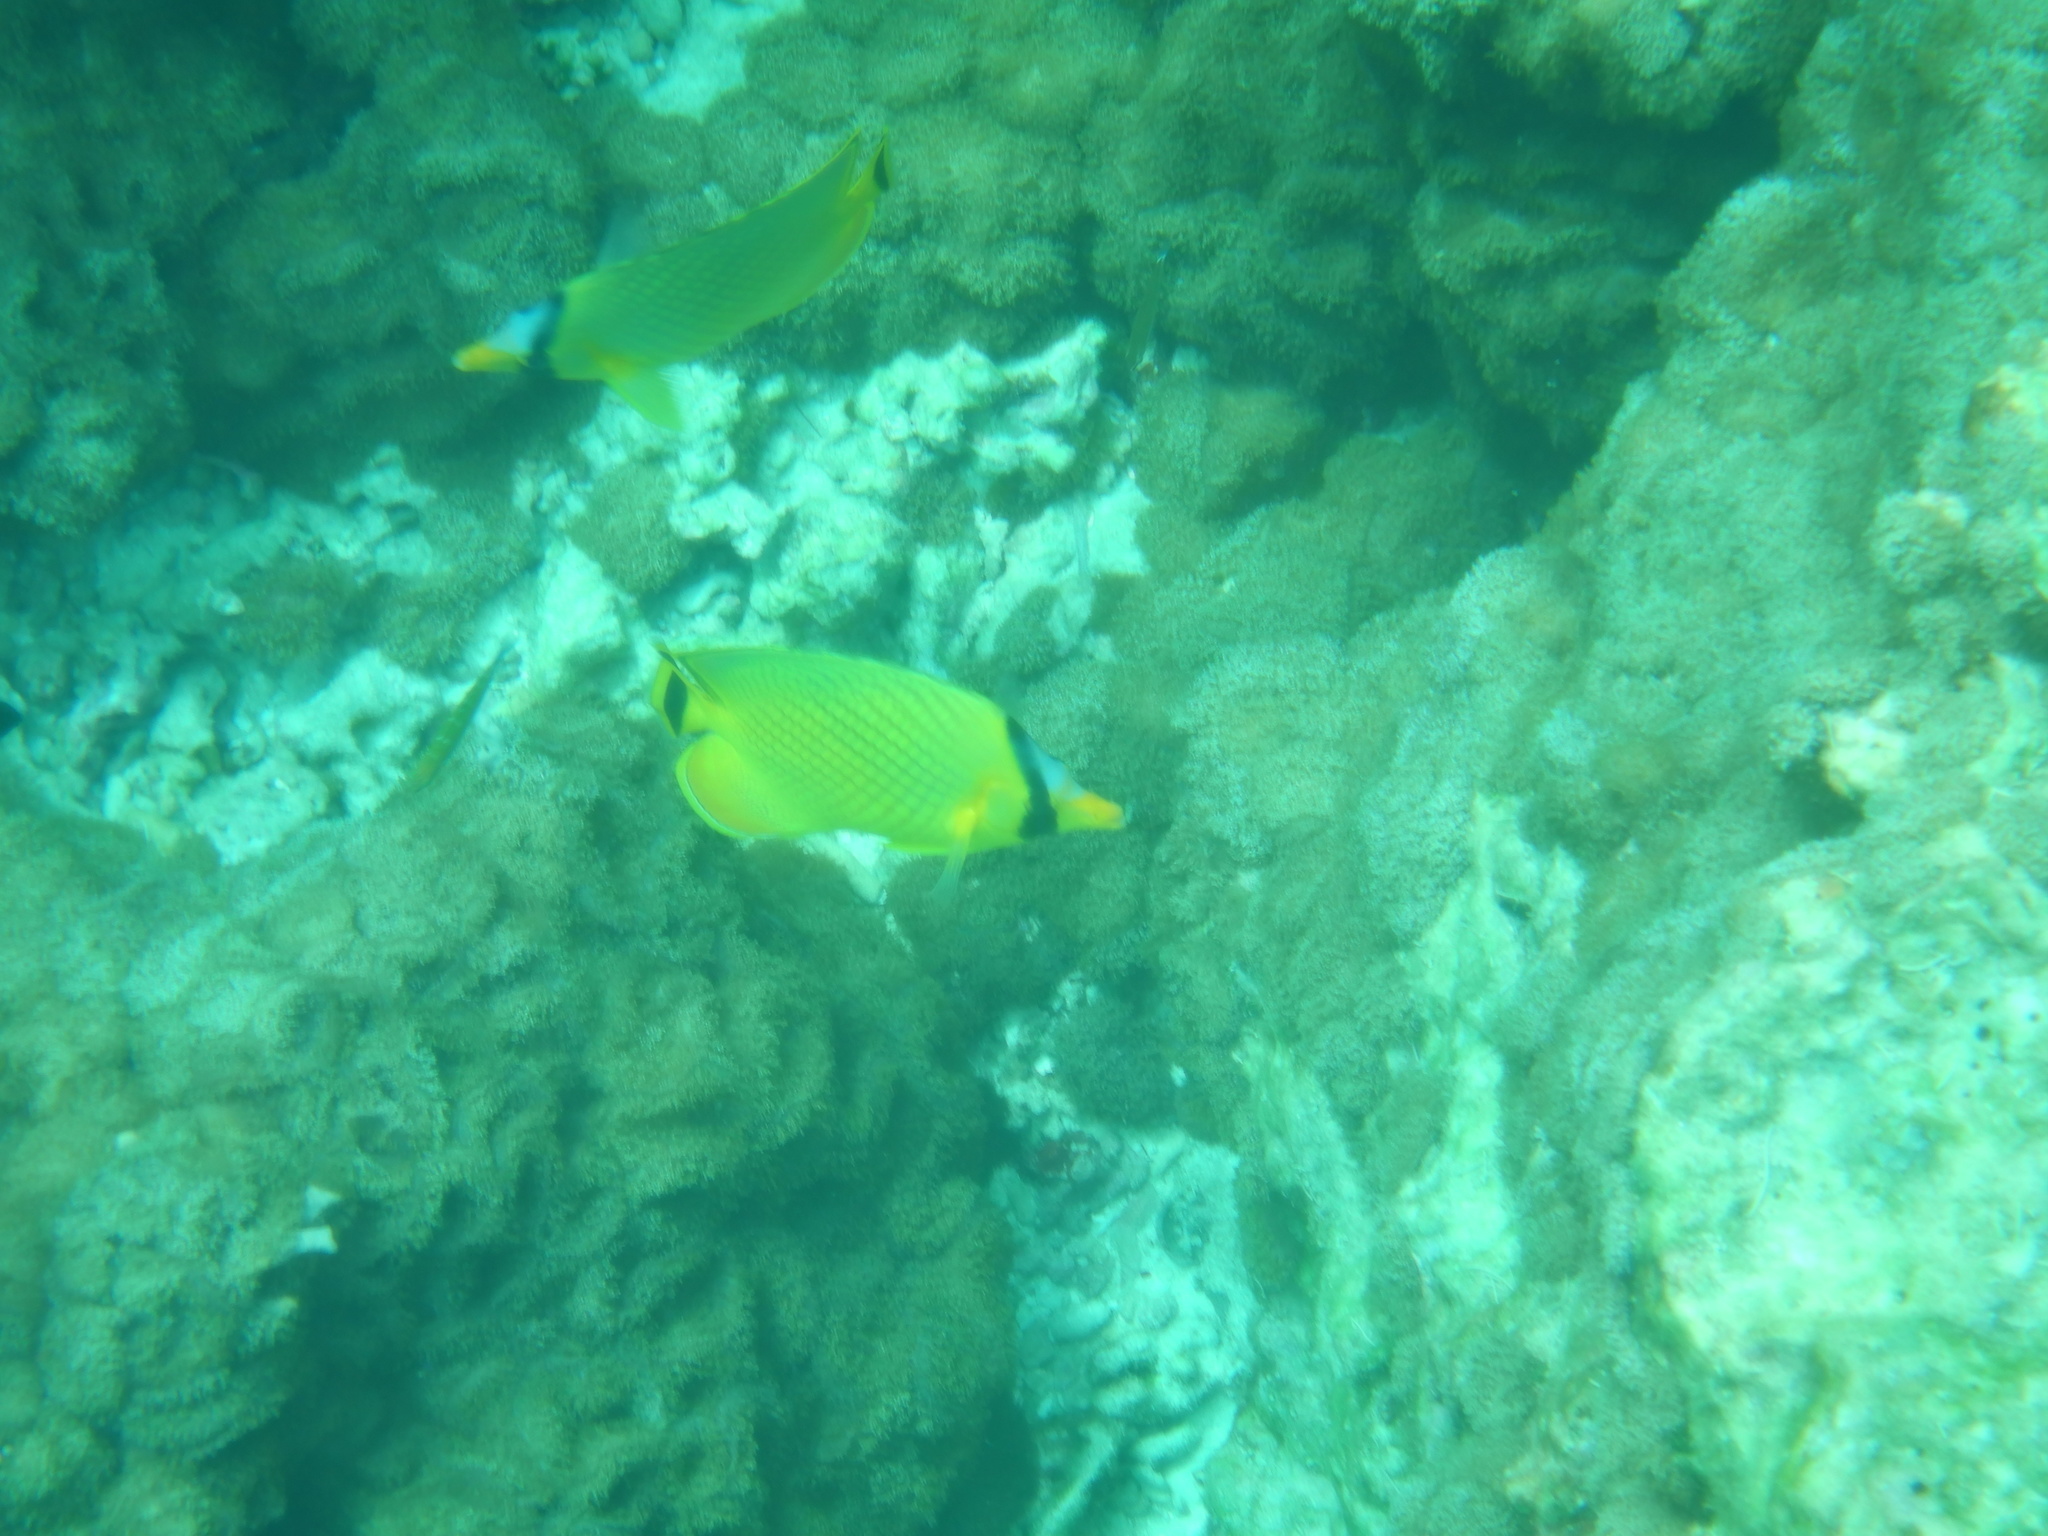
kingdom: Animalia
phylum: Chordata
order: Perciformes
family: Chaetodontidae
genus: Chaetodon
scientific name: Chaetodon rafflesii
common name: Latticed butterflyfish
